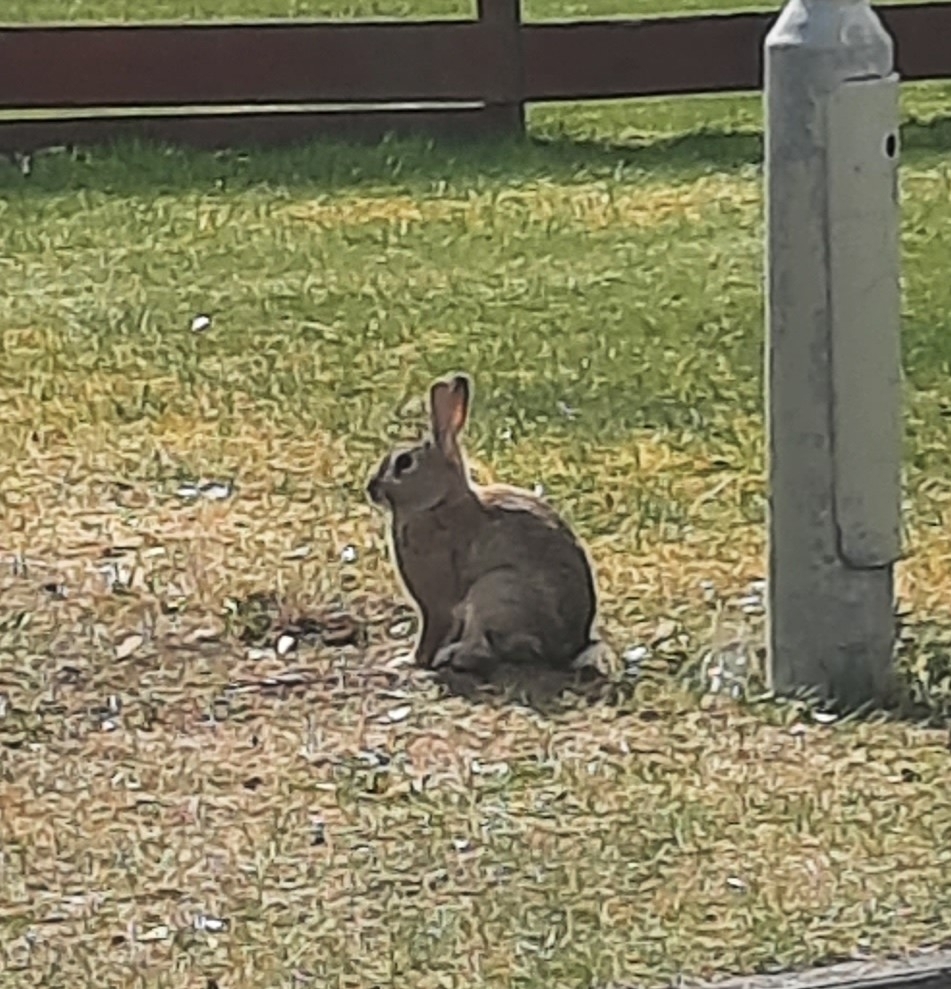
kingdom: Animalia
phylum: Chordata
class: Mammalia
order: Lagomorpha
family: Leporidae
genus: Oryctolagus
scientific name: Oryctolagus cuniculus
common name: European rabbit
